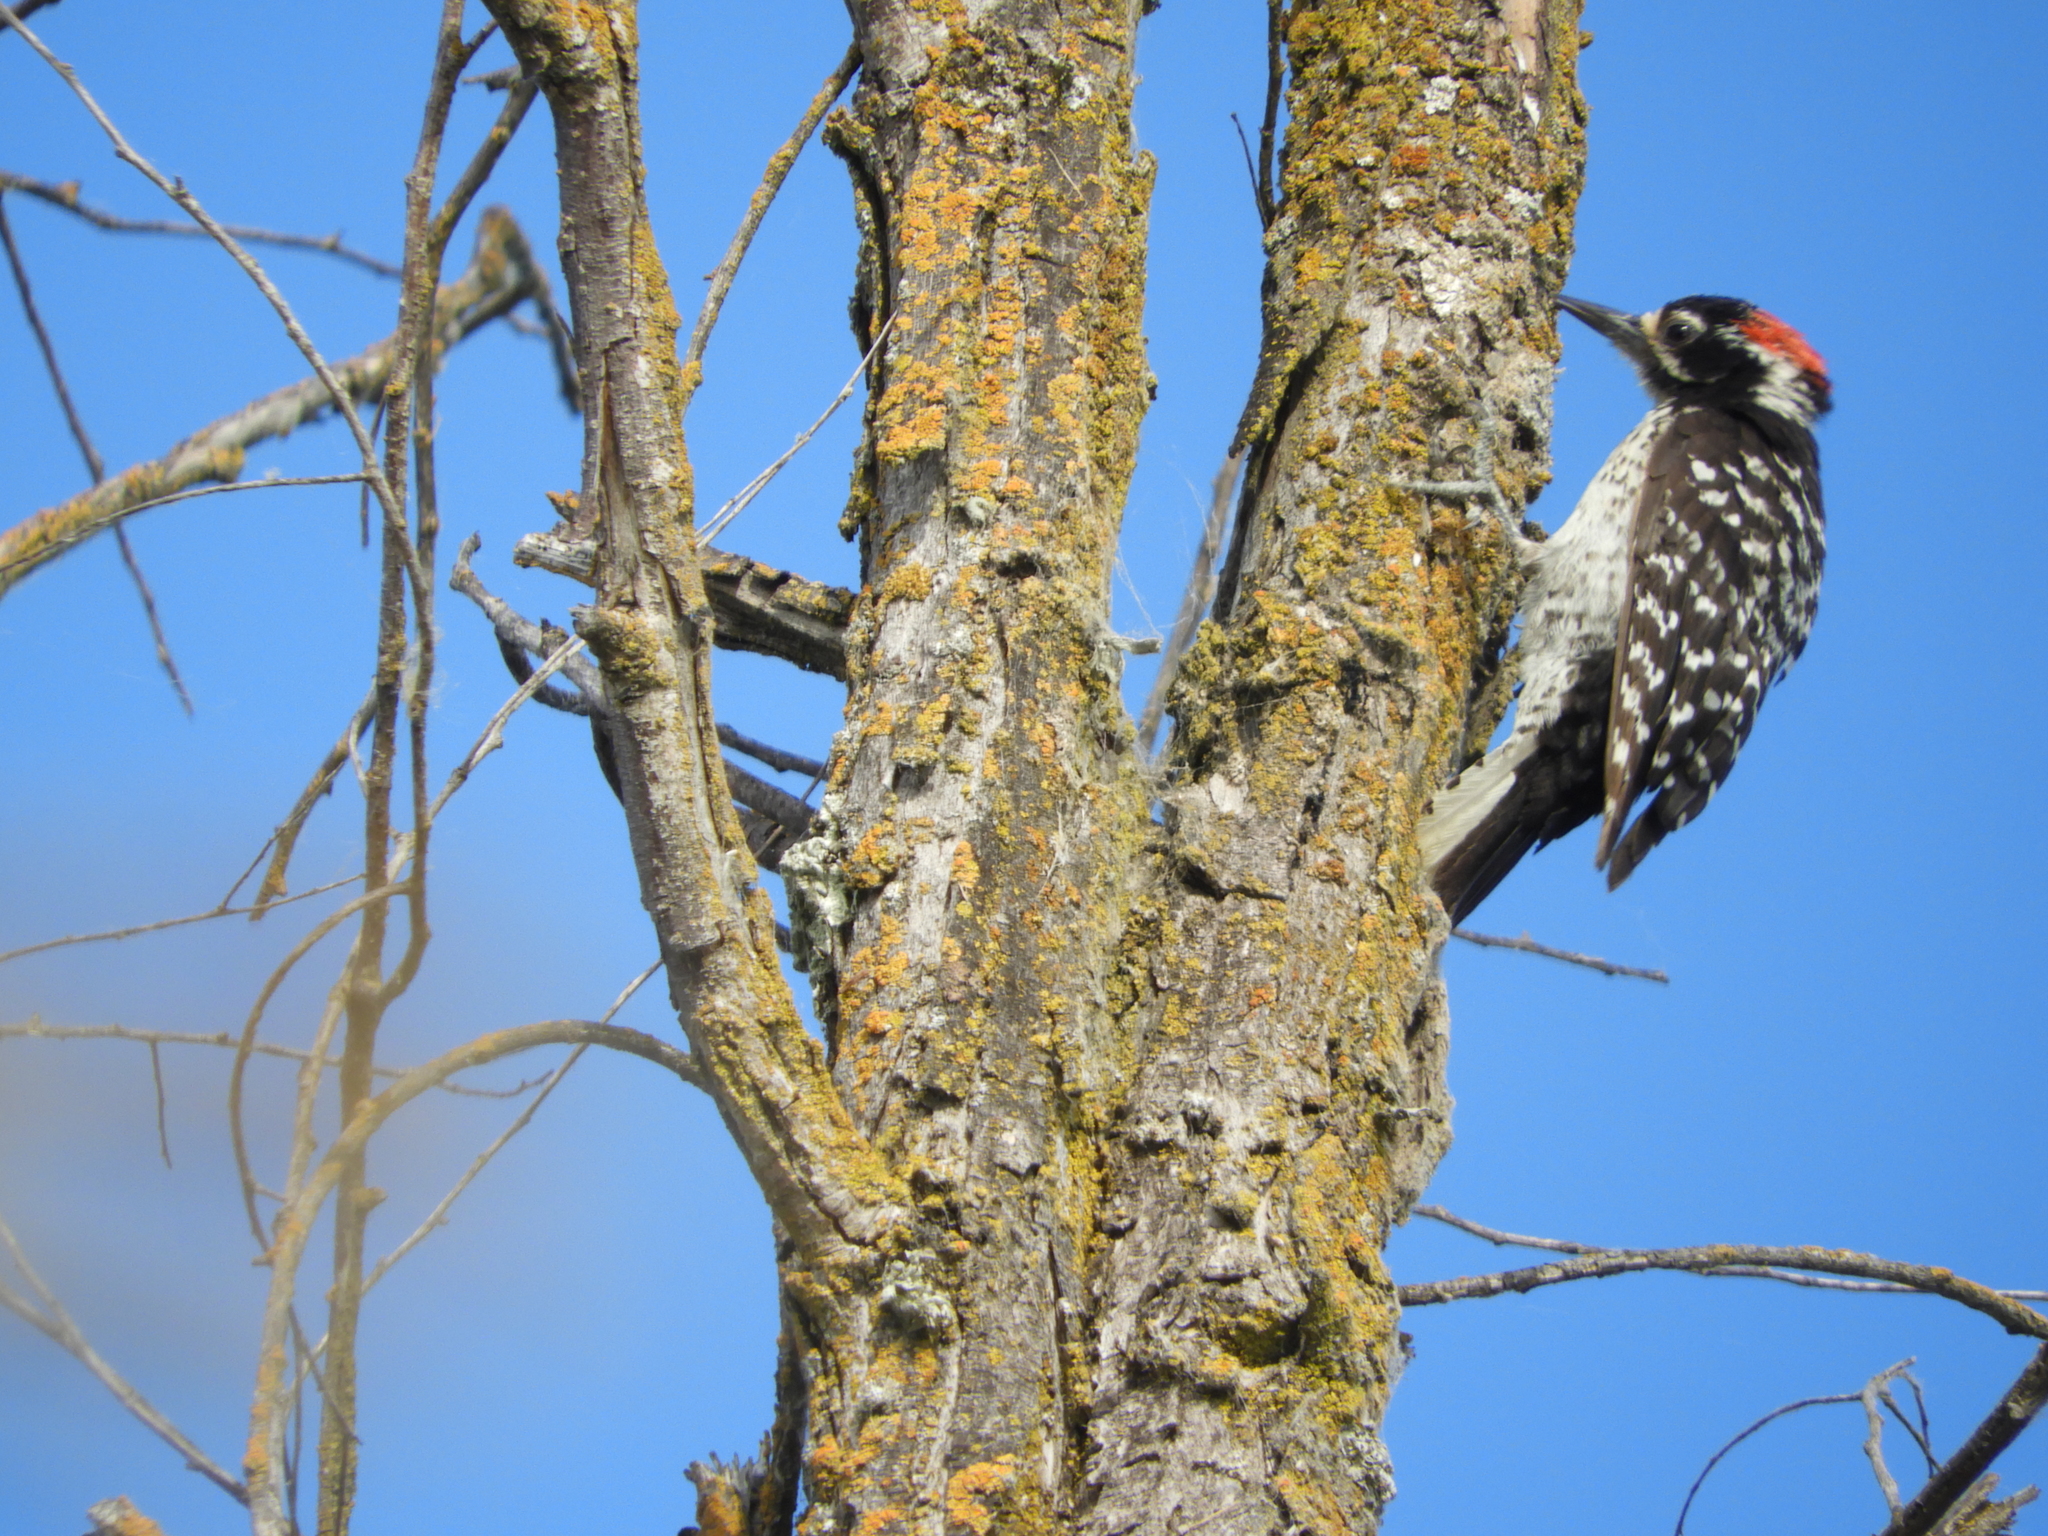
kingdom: Animalia
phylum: Chordata
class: Aves
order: Piciformes
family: Picidae
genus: Dryobates
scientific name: Dryobates nuttallii
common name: Nuttall's woodpecker
